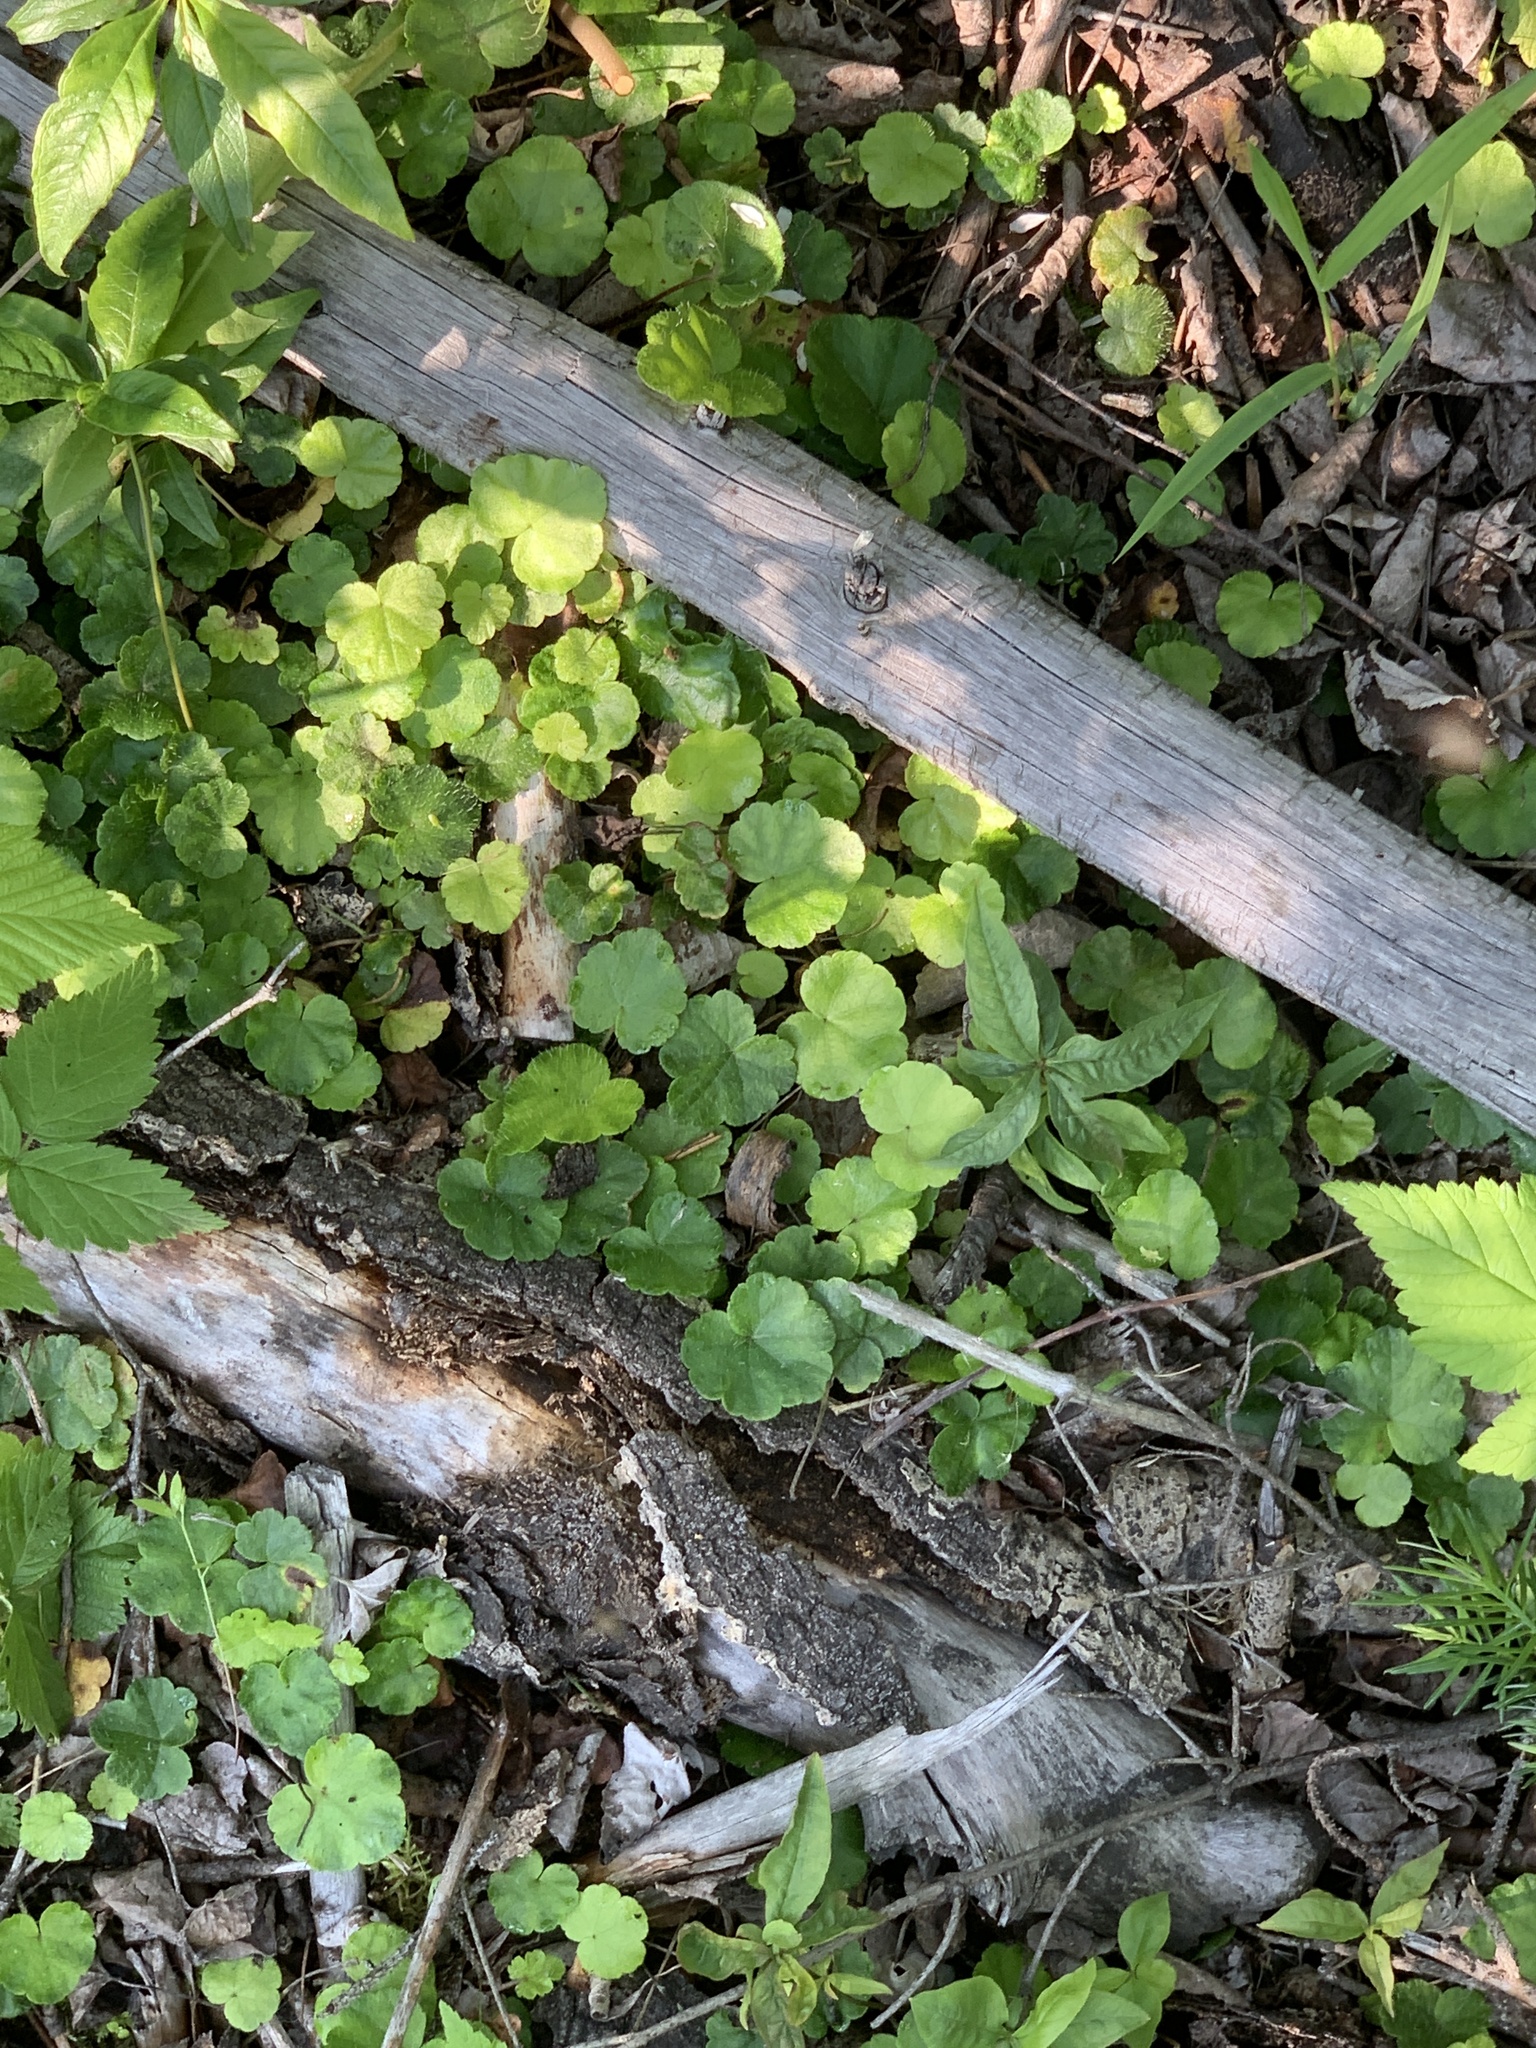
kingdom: Plantae
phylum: Tracheophyta
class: Magnoliopsida
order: Saxifragales
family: Saxifragaceae
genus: Mitella
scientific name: Mitella nuda
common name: Bare-stemmed bishop's-cap
